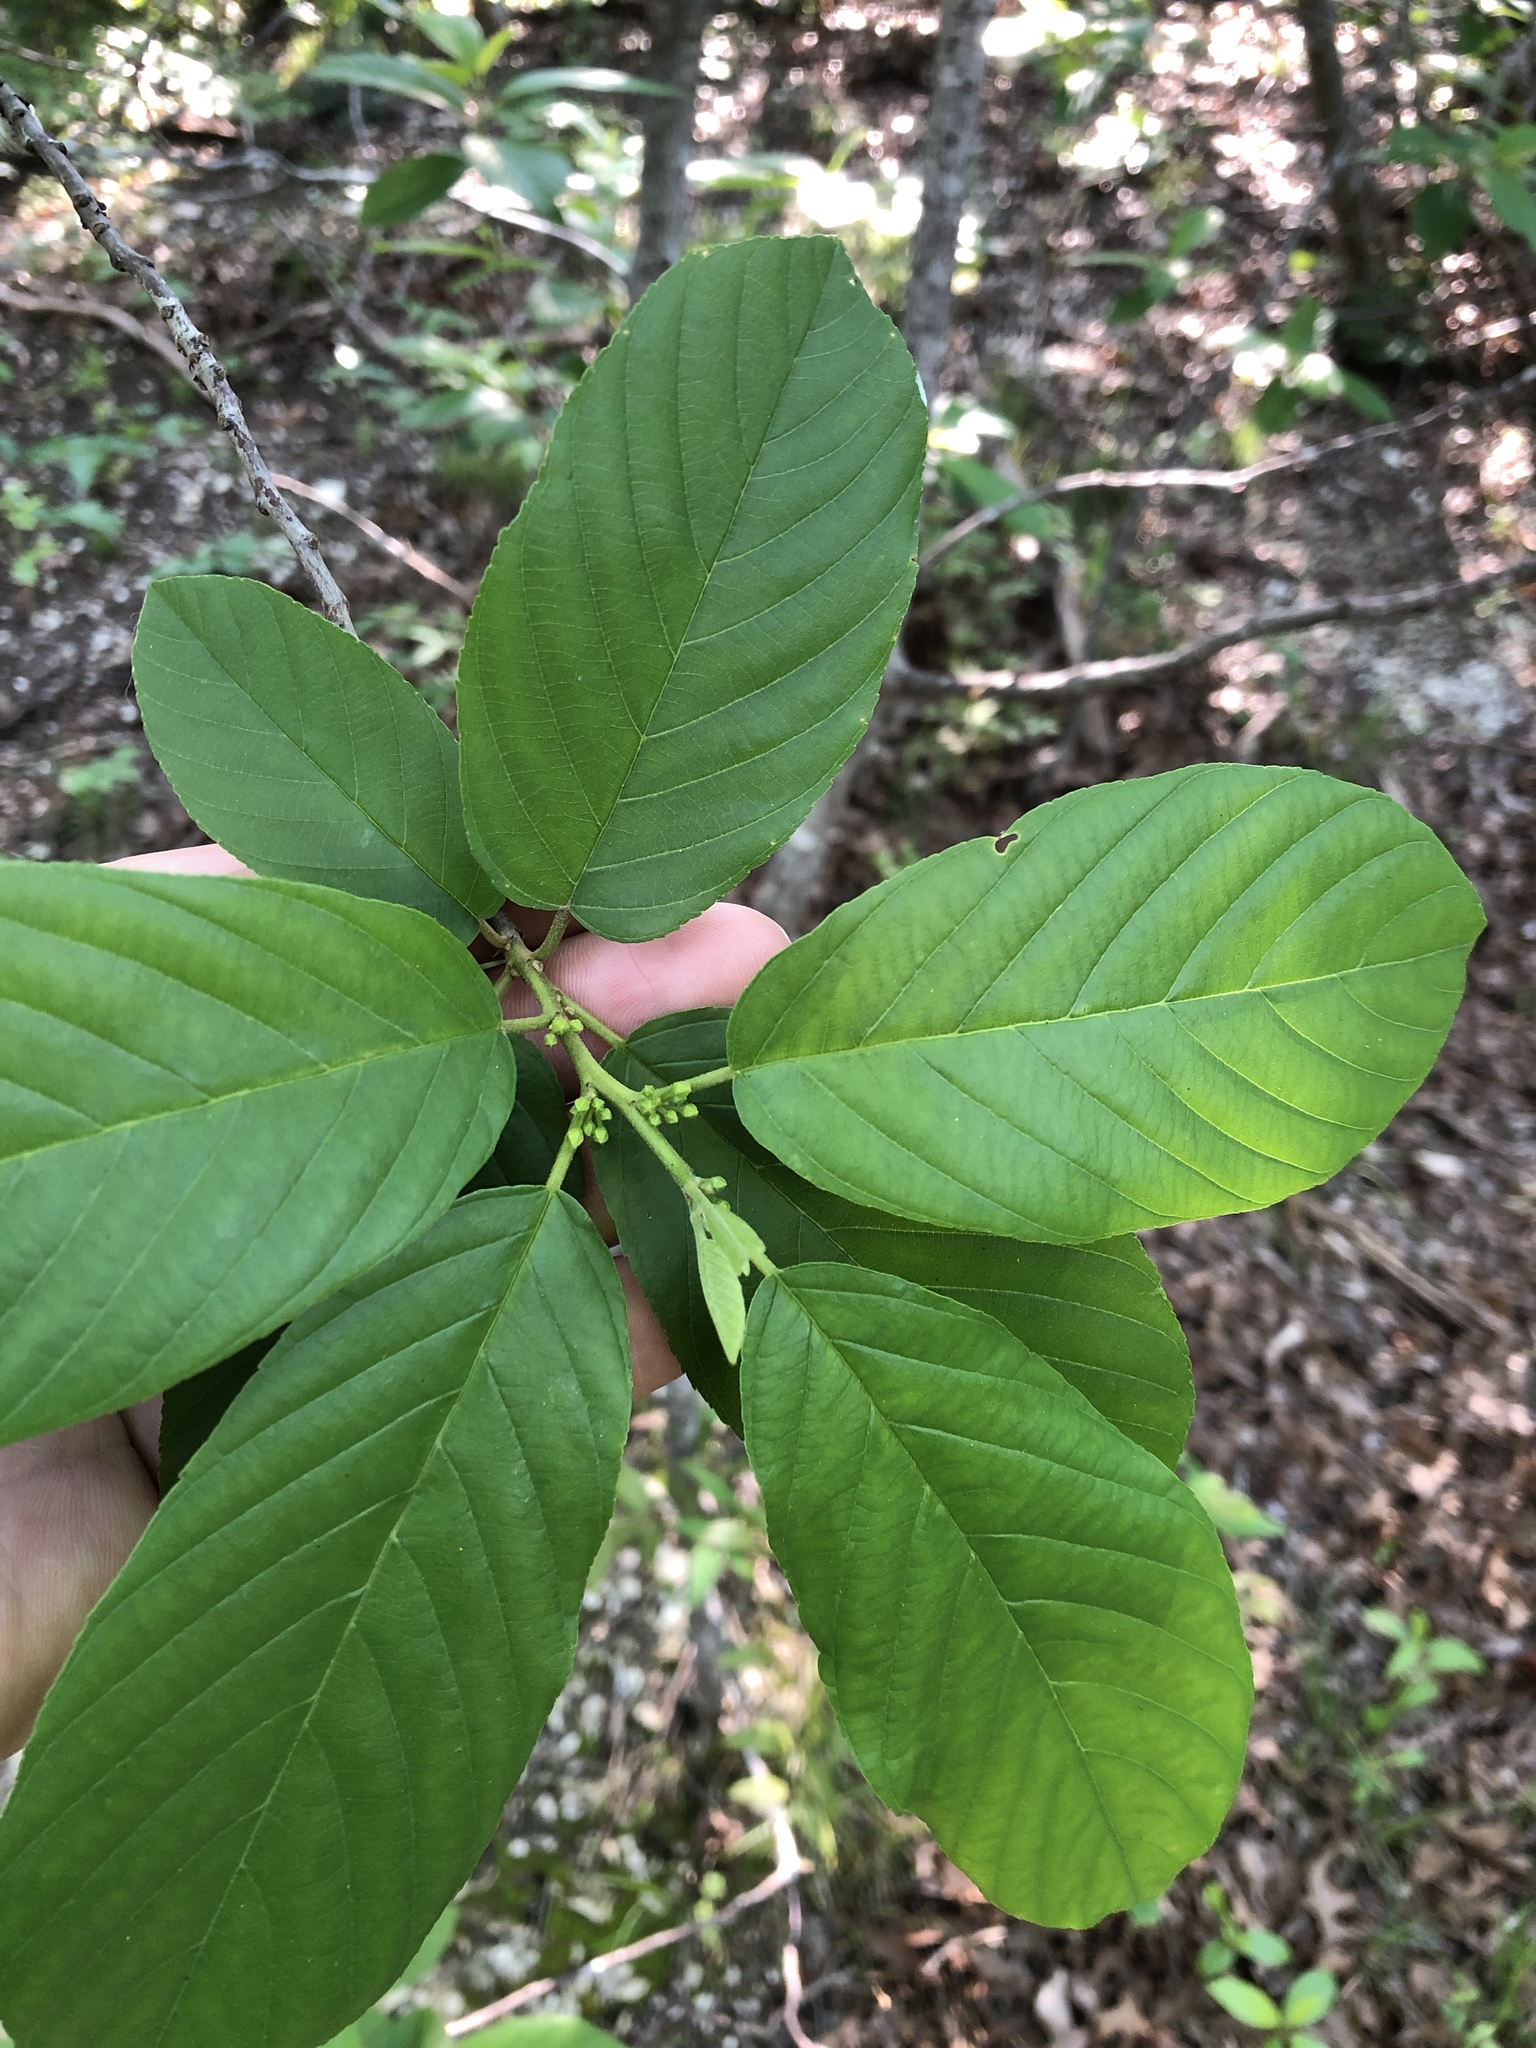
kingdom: Plantae
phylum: Tracheophyta
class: Magnoliopsida
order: Rosales
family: Rhamnaceae
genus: Frangula
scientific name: Frangula caroliniana
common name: Carolina buckthorn
